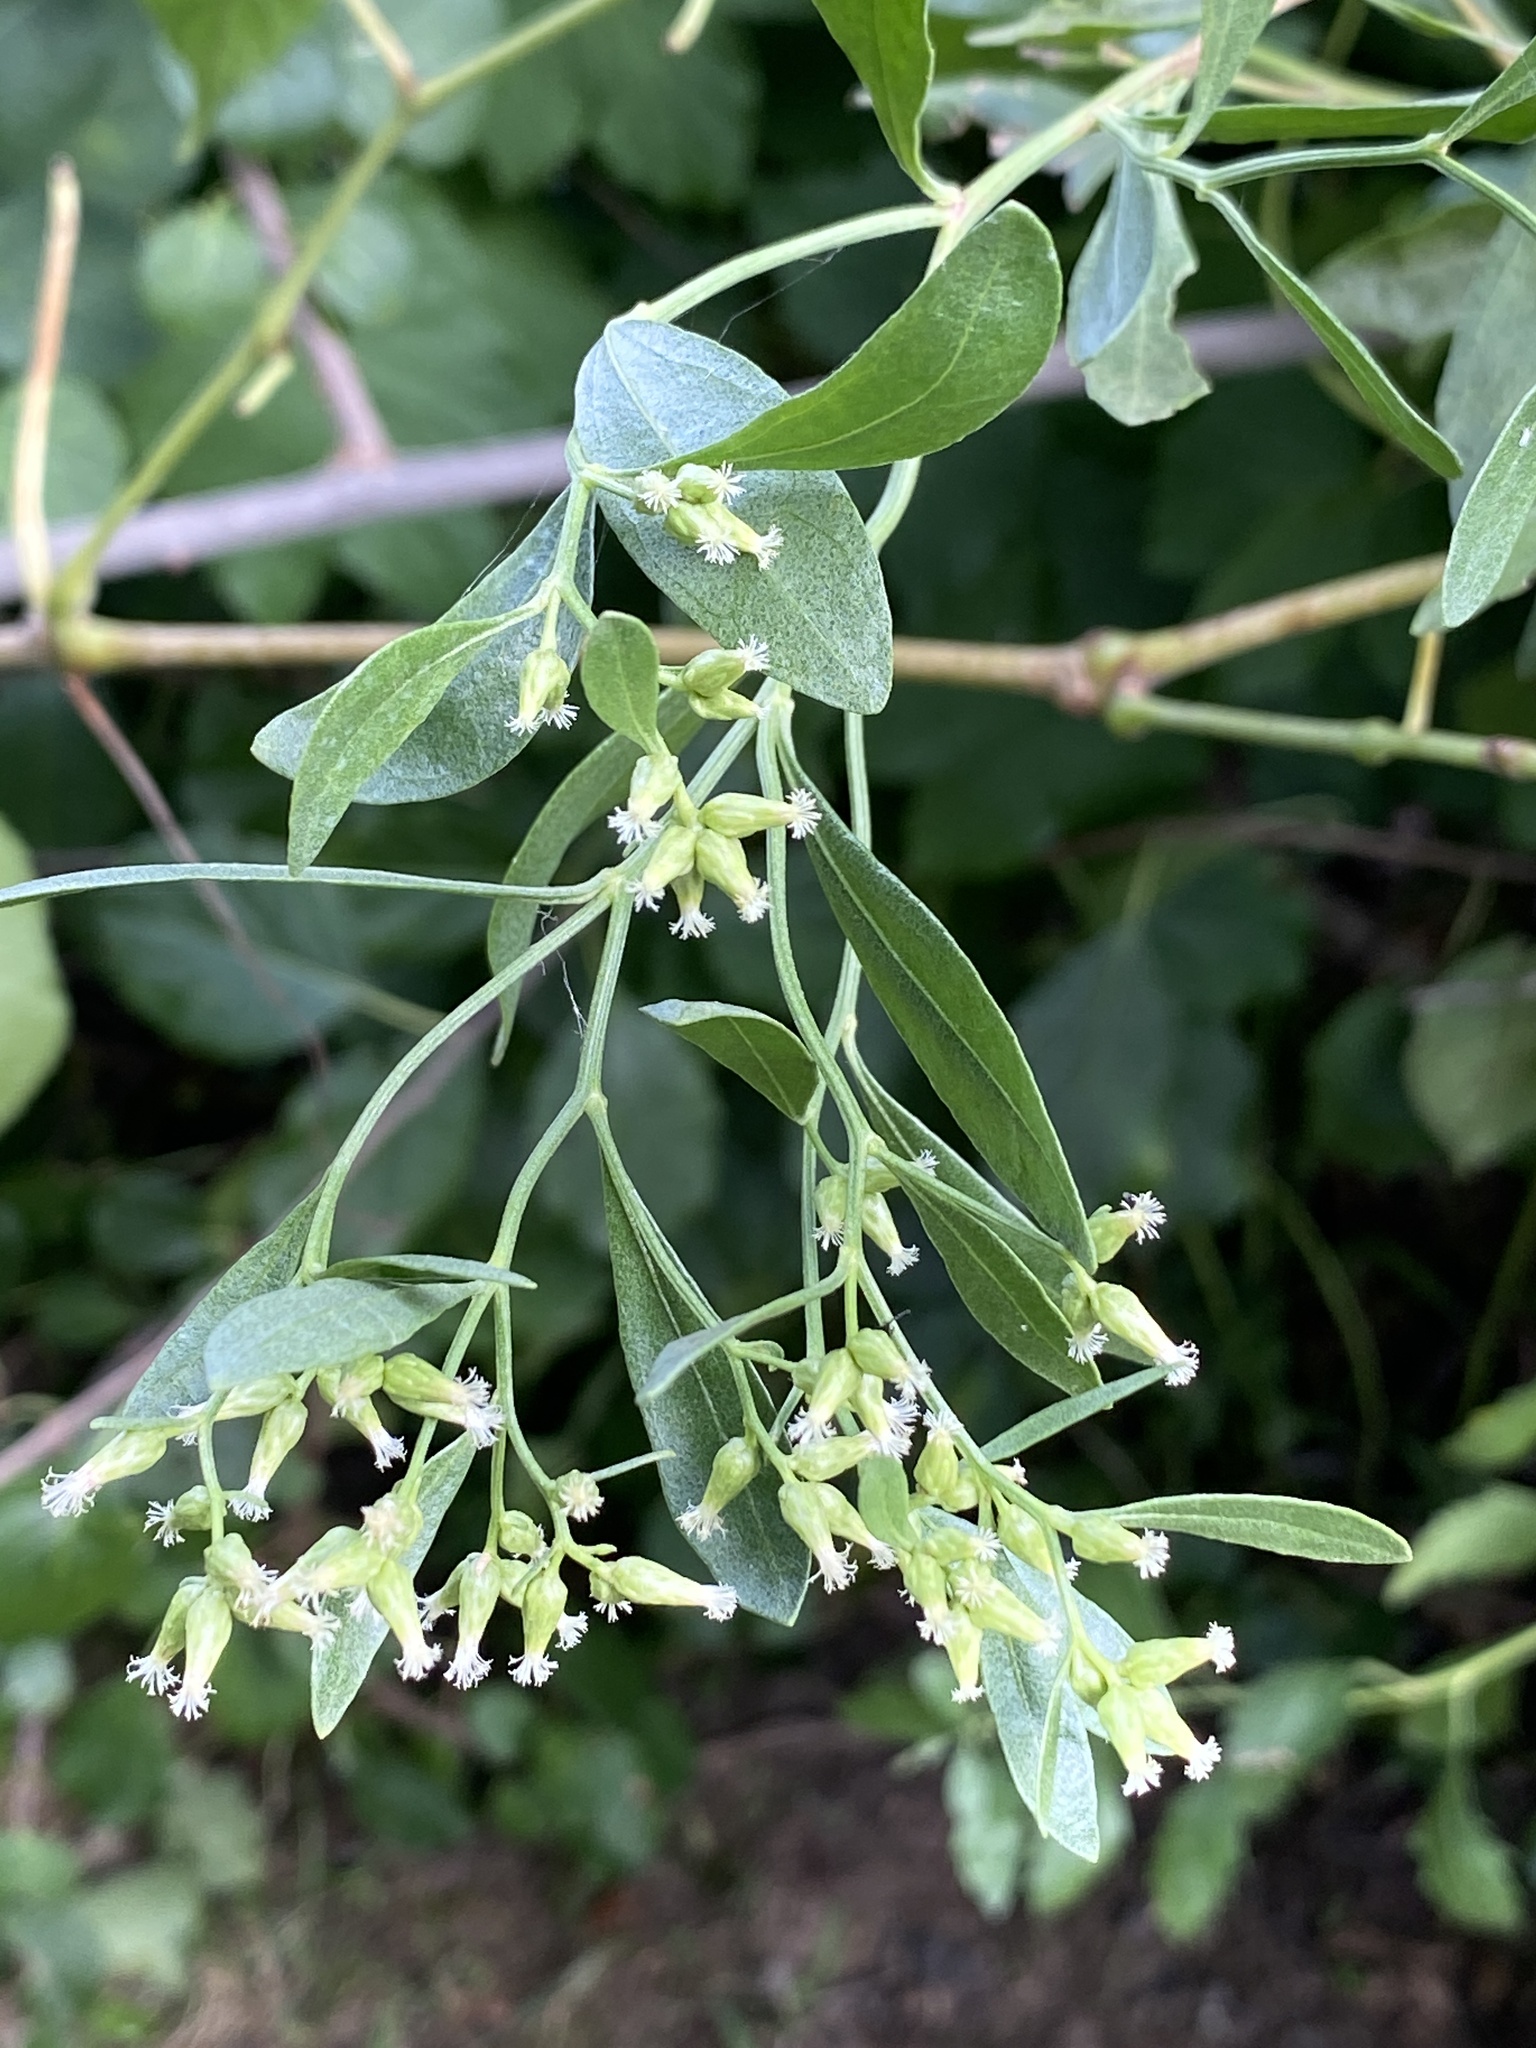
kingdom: Plantae
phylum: Tracheophyta
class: Magnoliopsida
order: Asterales
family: Asteraceae
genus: Baccharis
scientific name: Baccharis halimifolia
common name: Eastern baccharis
